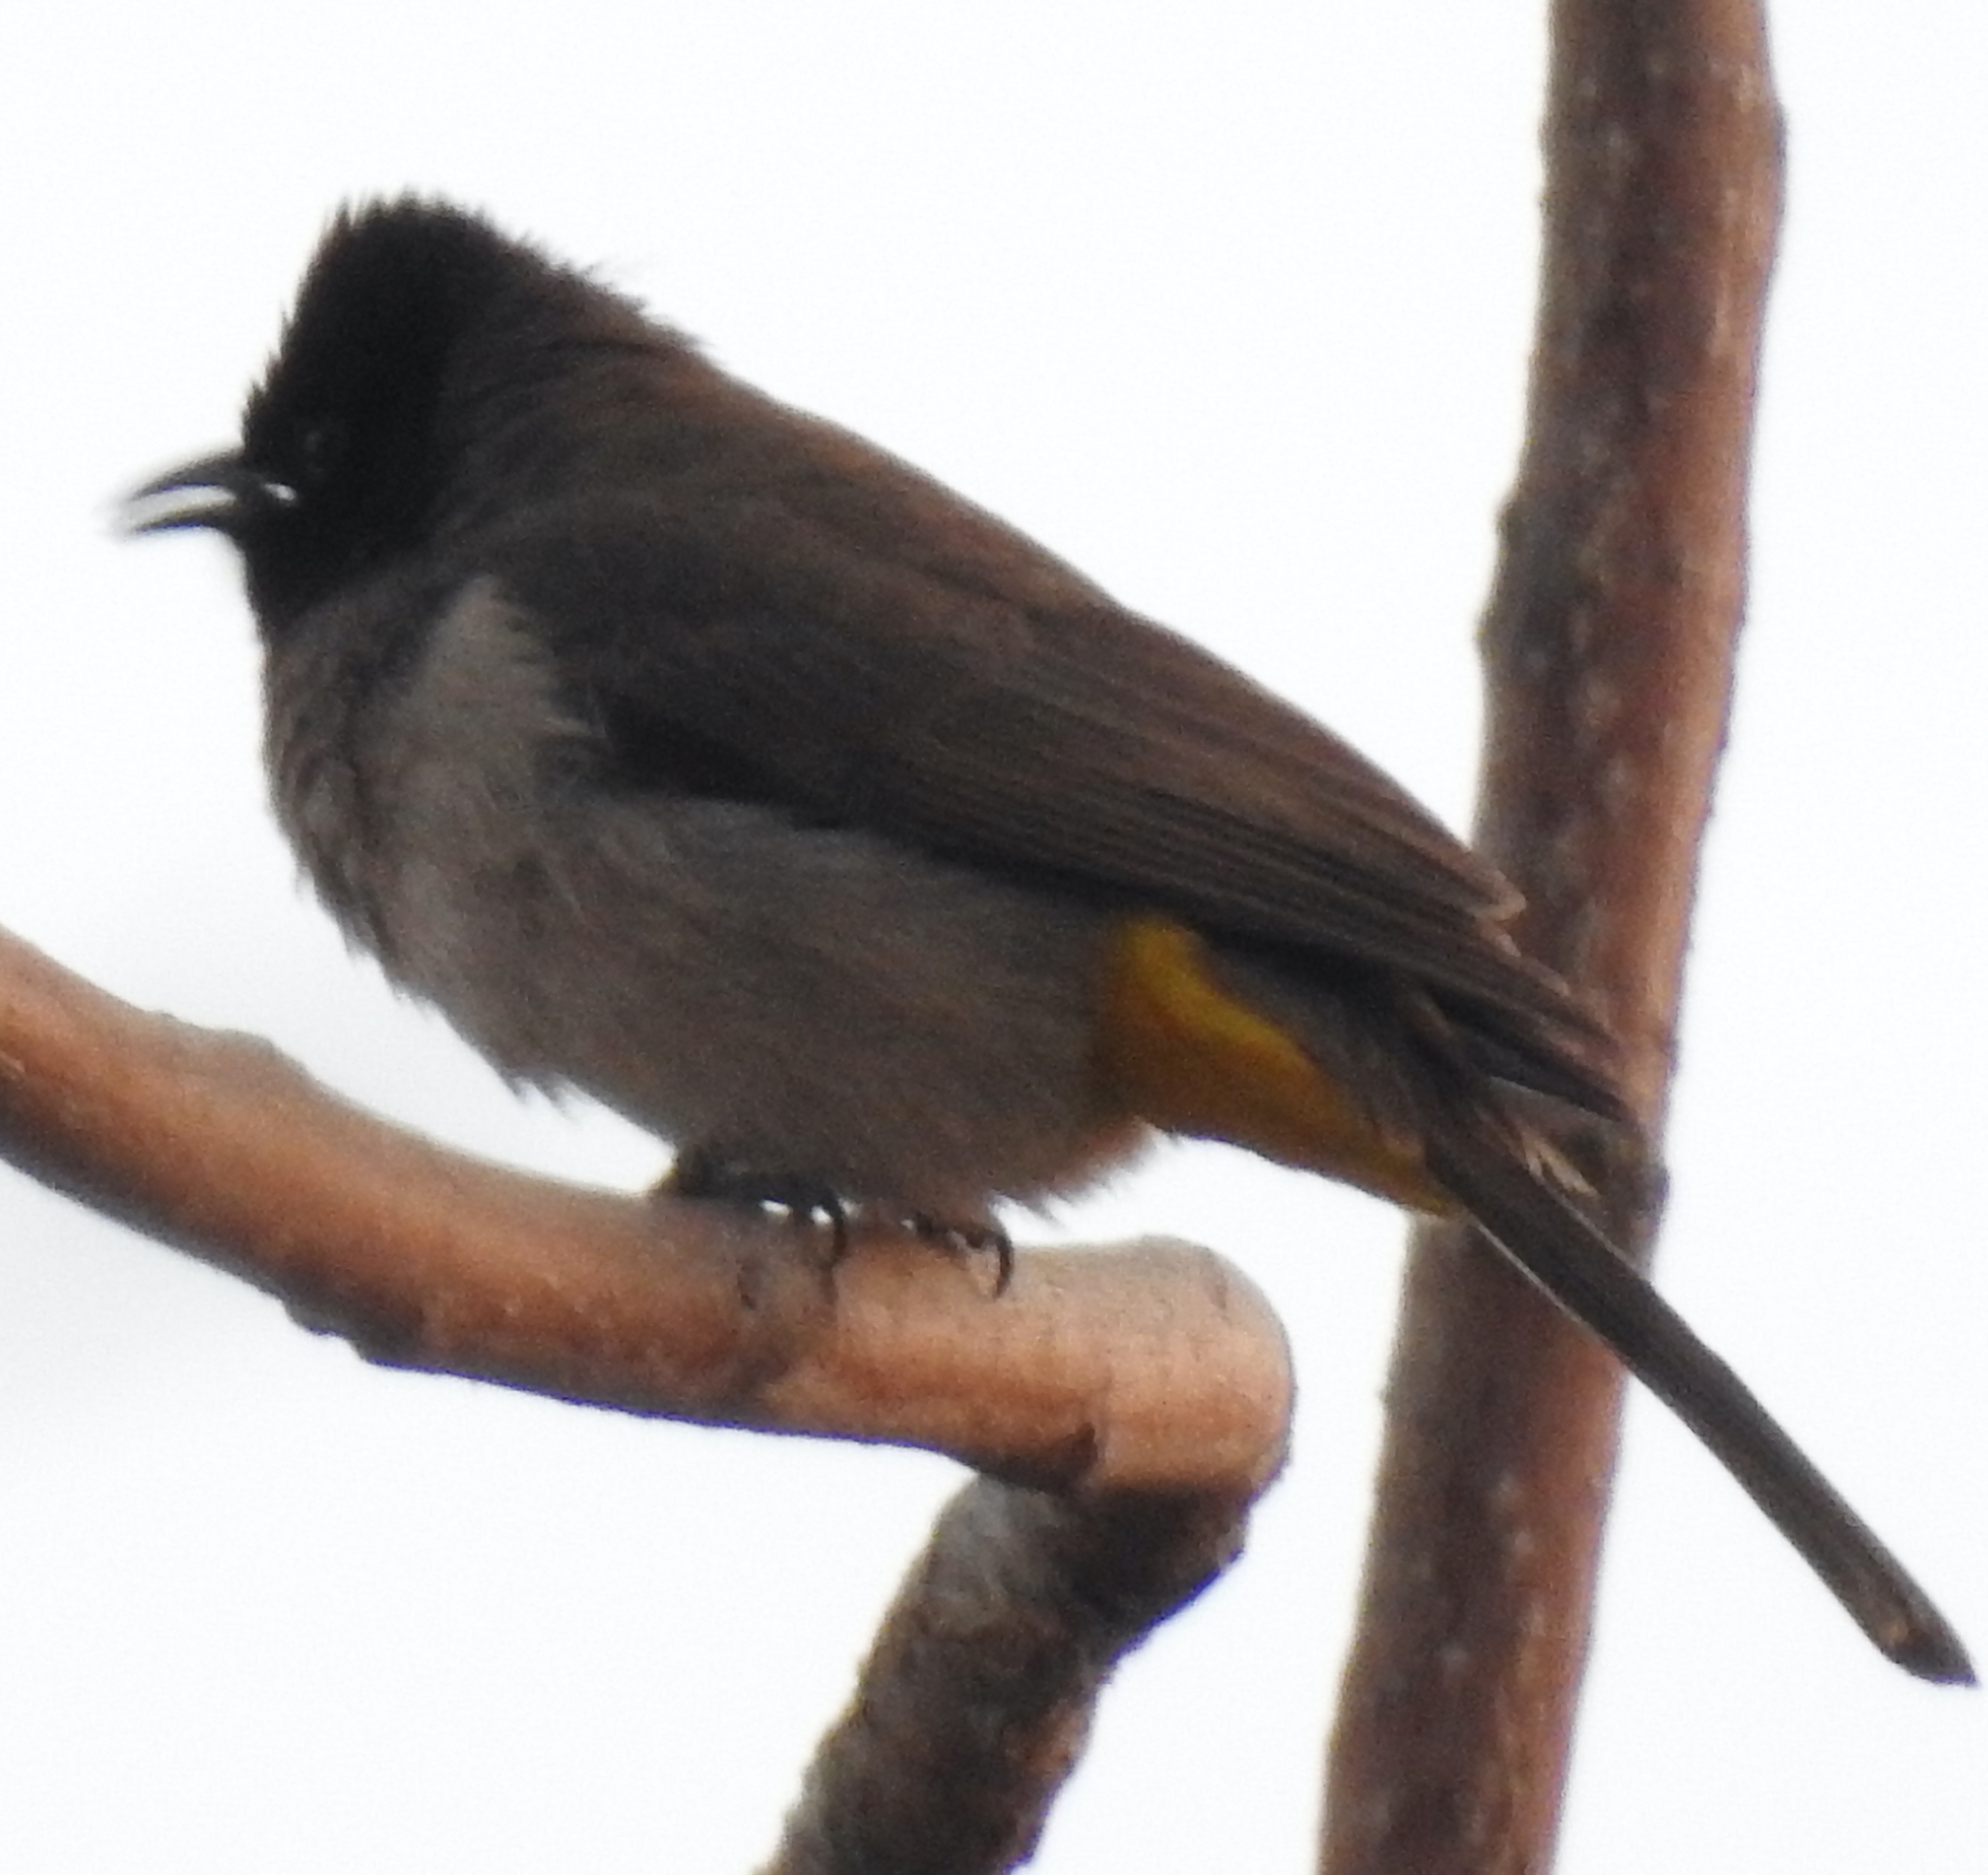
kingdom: Animalia
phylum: Chordata
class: Aves
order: Passeriformes
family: Pycnonotidae
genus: Pycnonotus
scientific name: Pycnonotus barbatus
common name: Common bulbul
